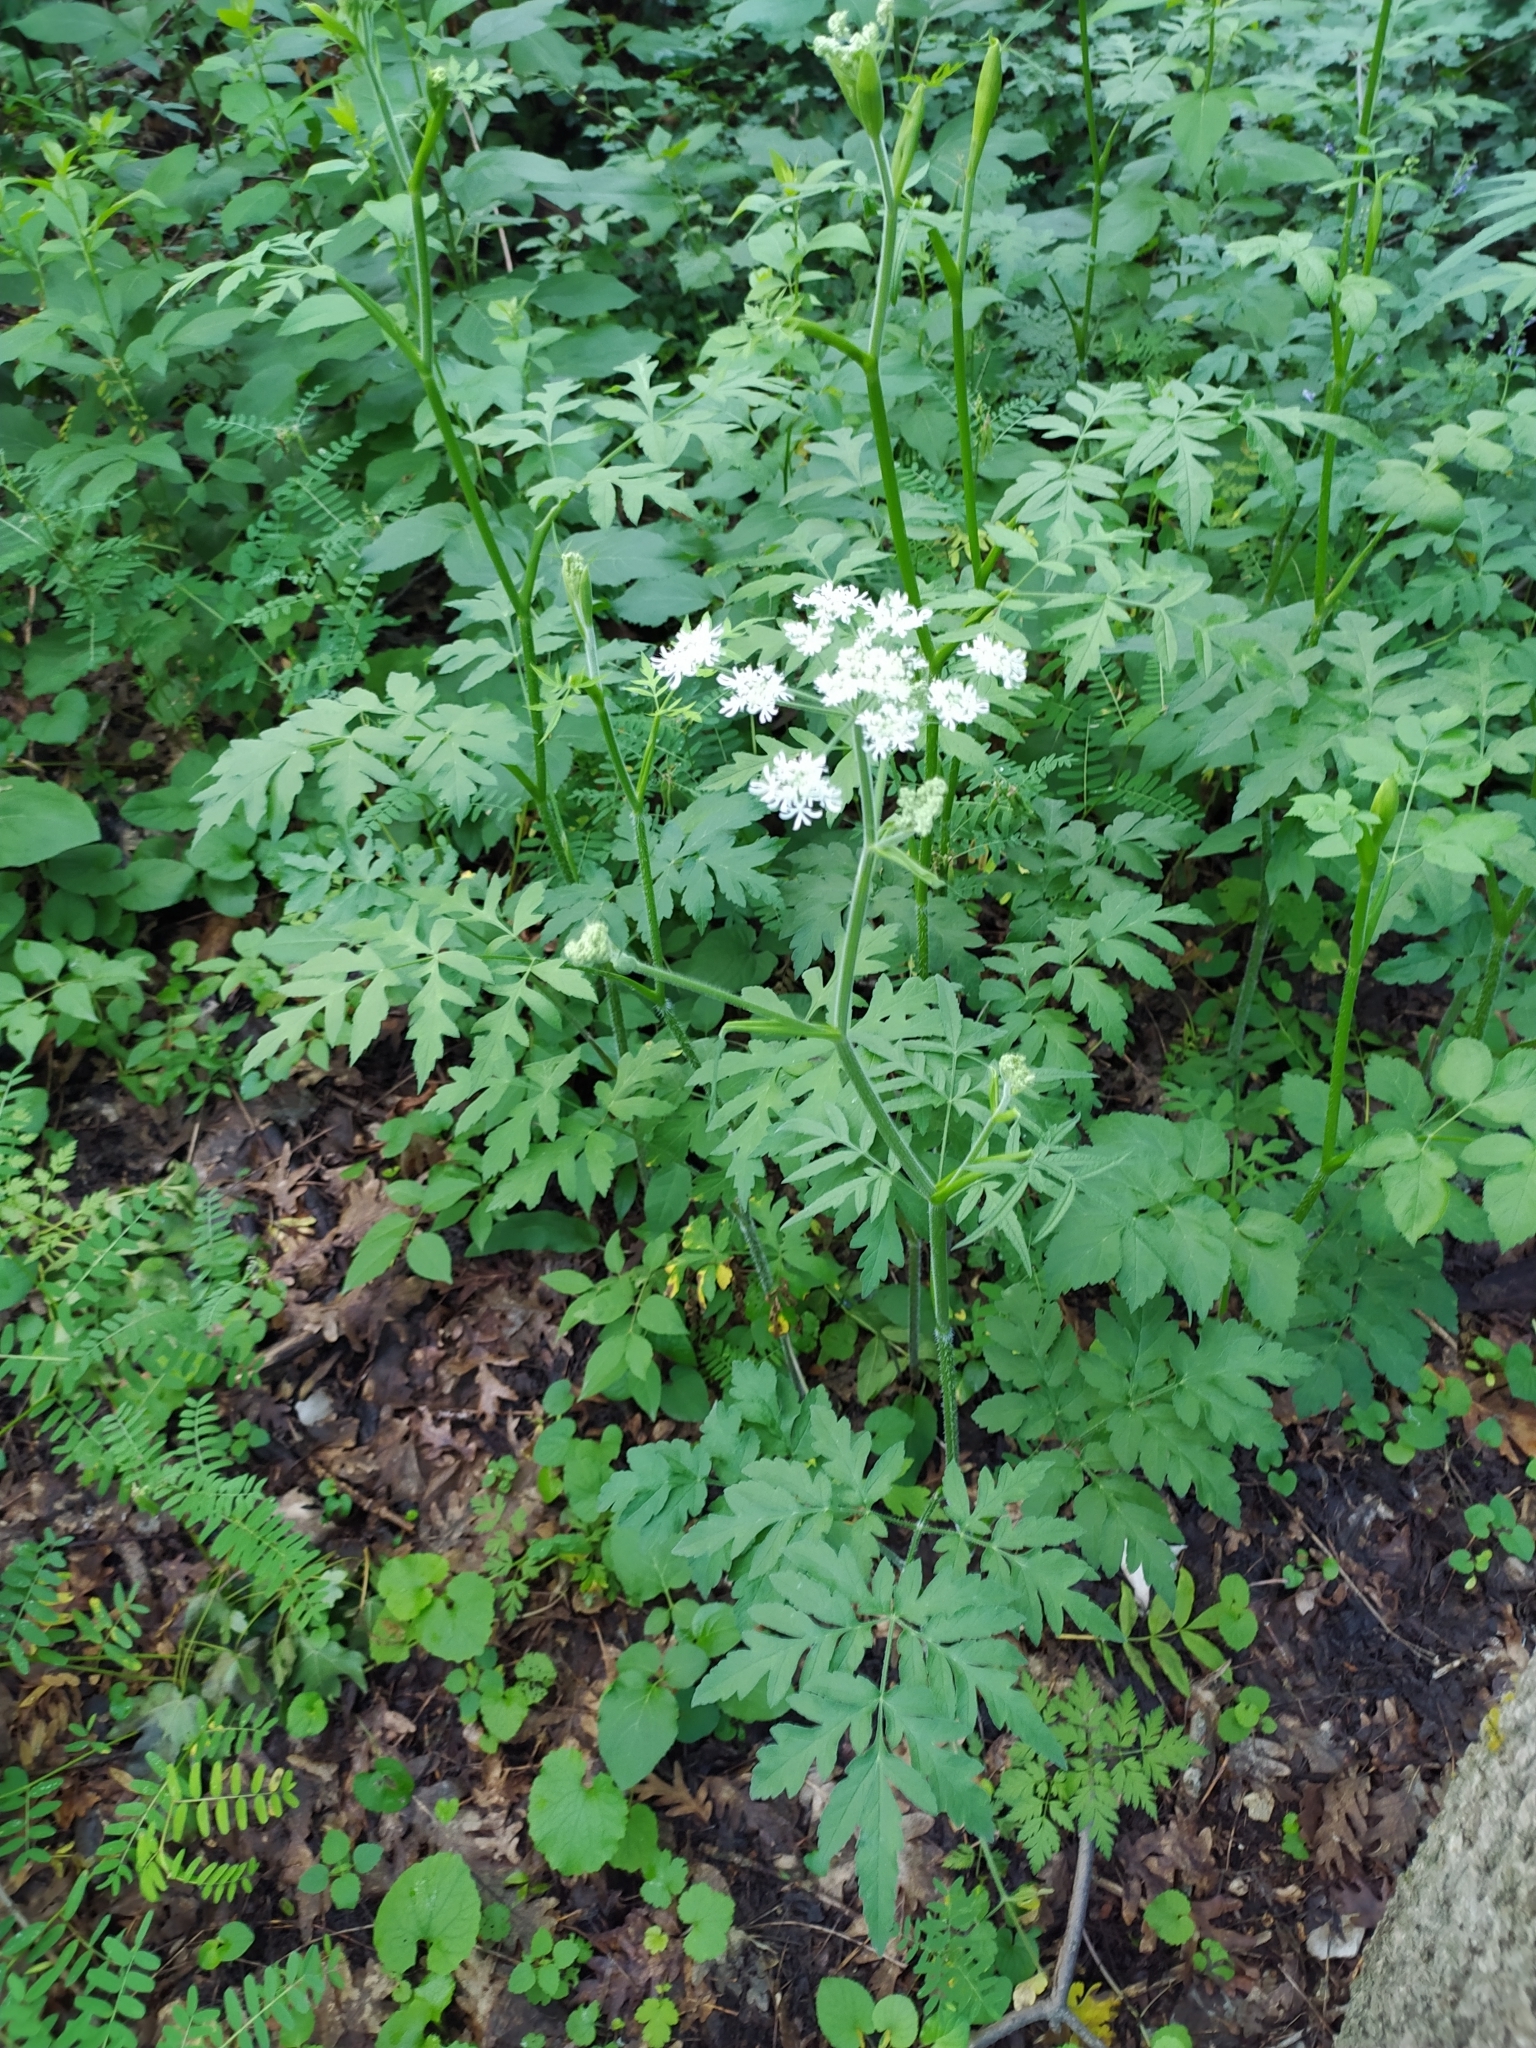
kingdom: Plantae
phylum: Tracheophyta
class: Magnoliopsida
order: Apiales
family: Apiaceae
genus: Heracleum
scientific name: Heracleum chorodanum
